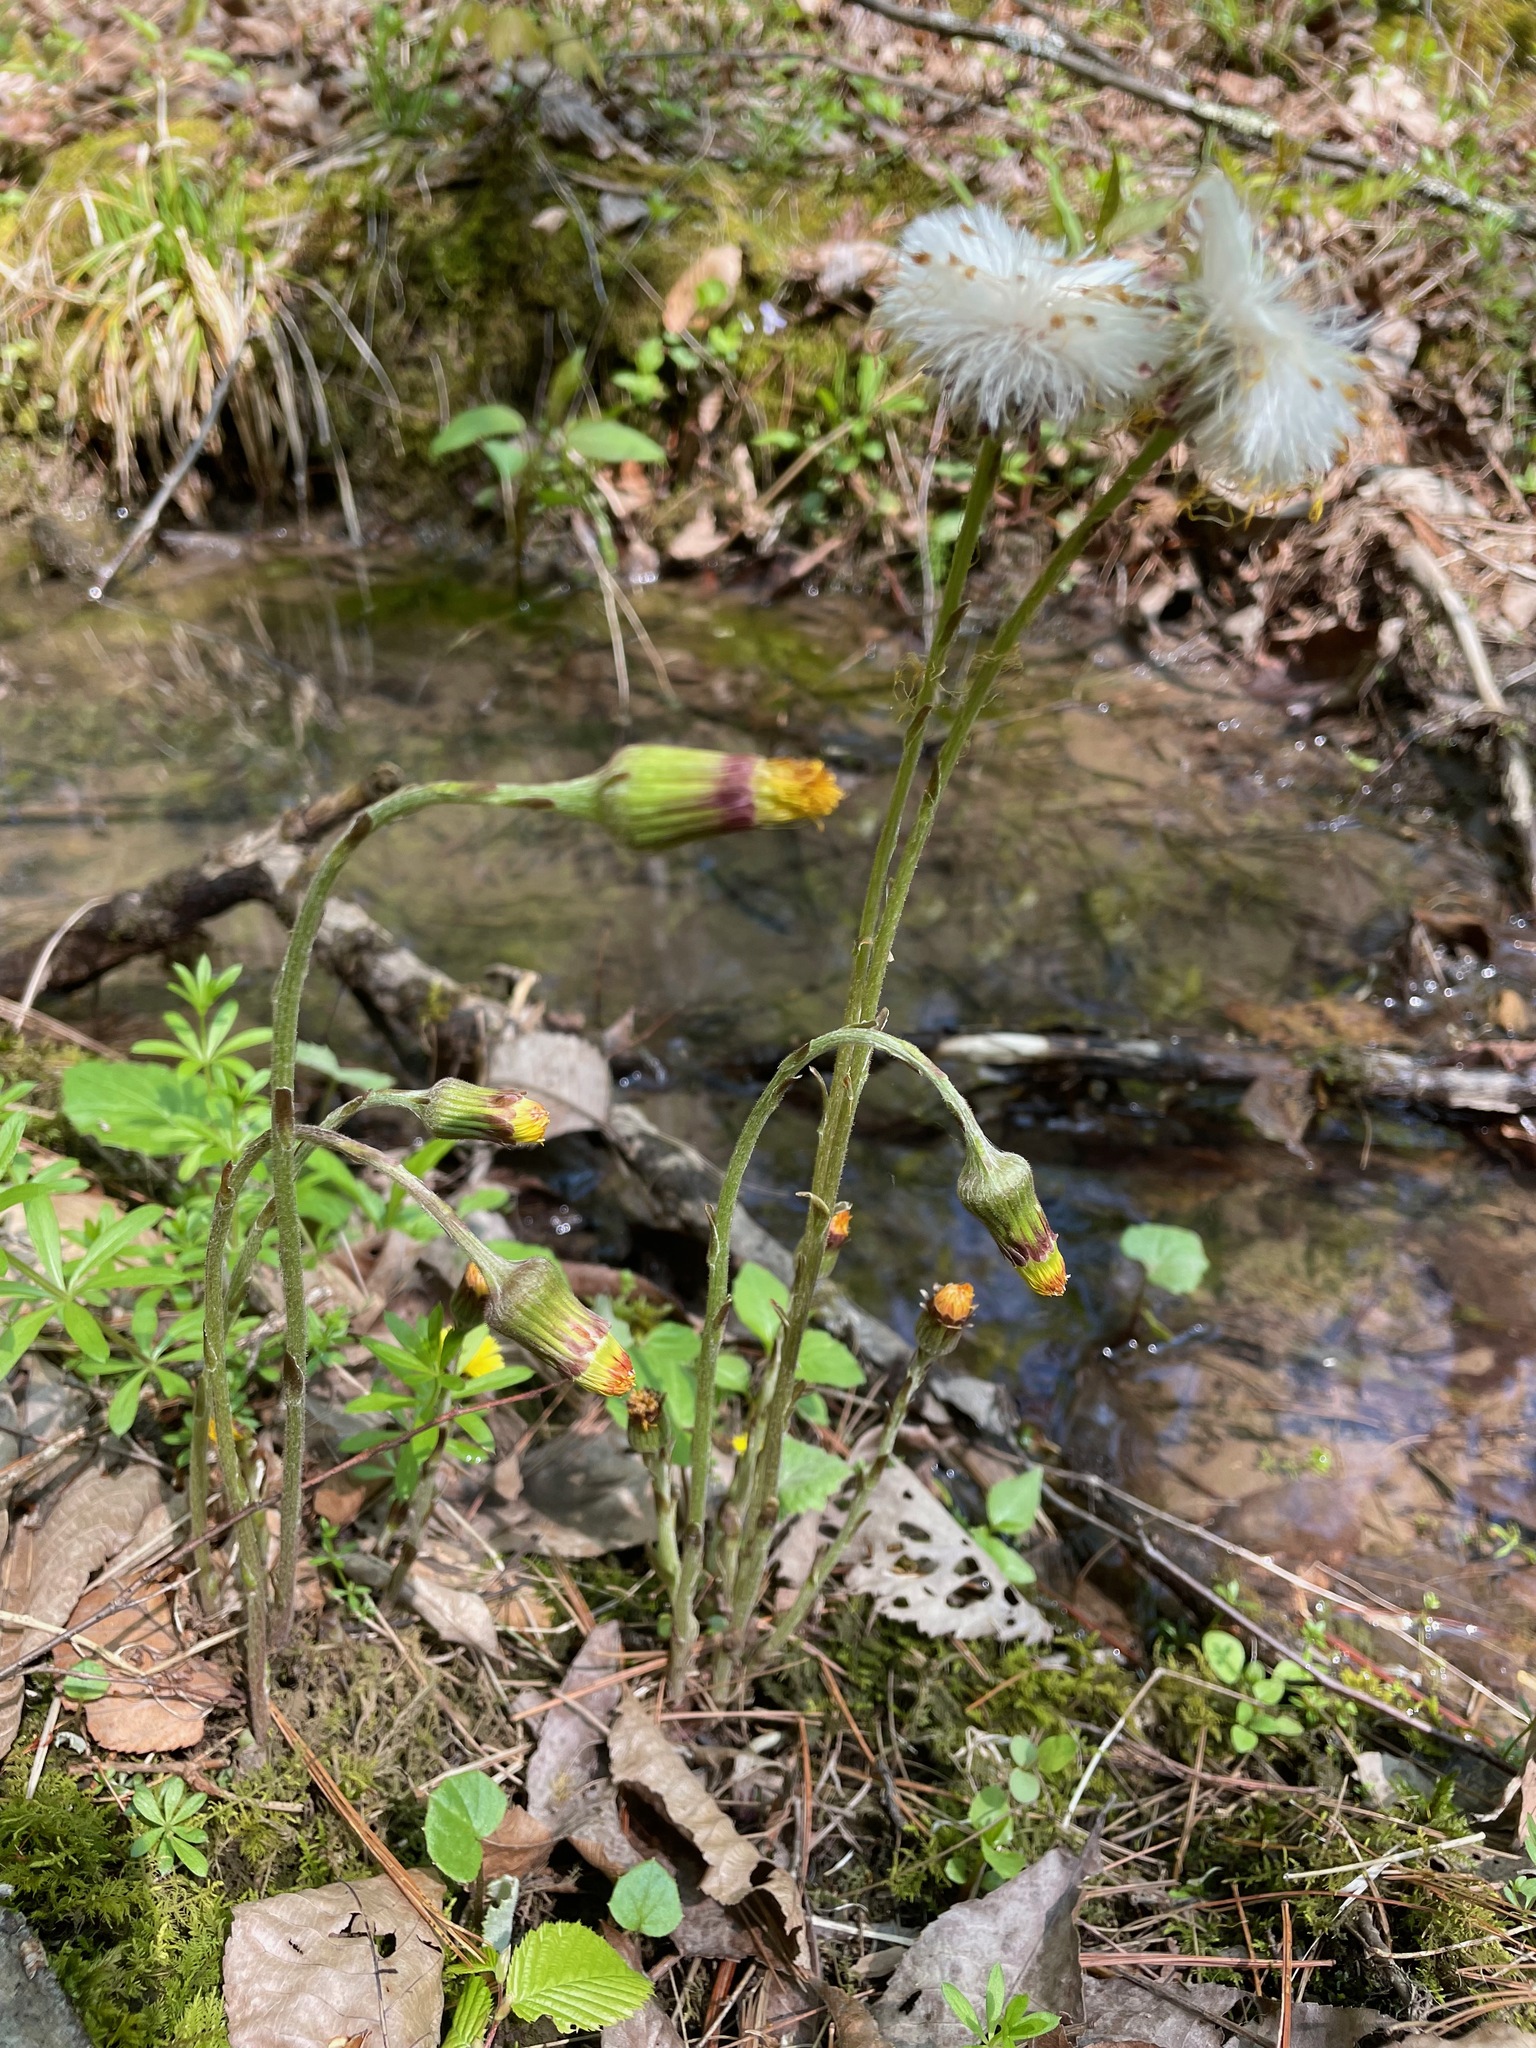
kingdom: Plantae
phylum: Tracheophyta
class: Magnoliopsida
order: Asterales
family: Asteraceae
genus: Tussilago
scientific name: Tussilago farfara
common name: Coltsfoot
